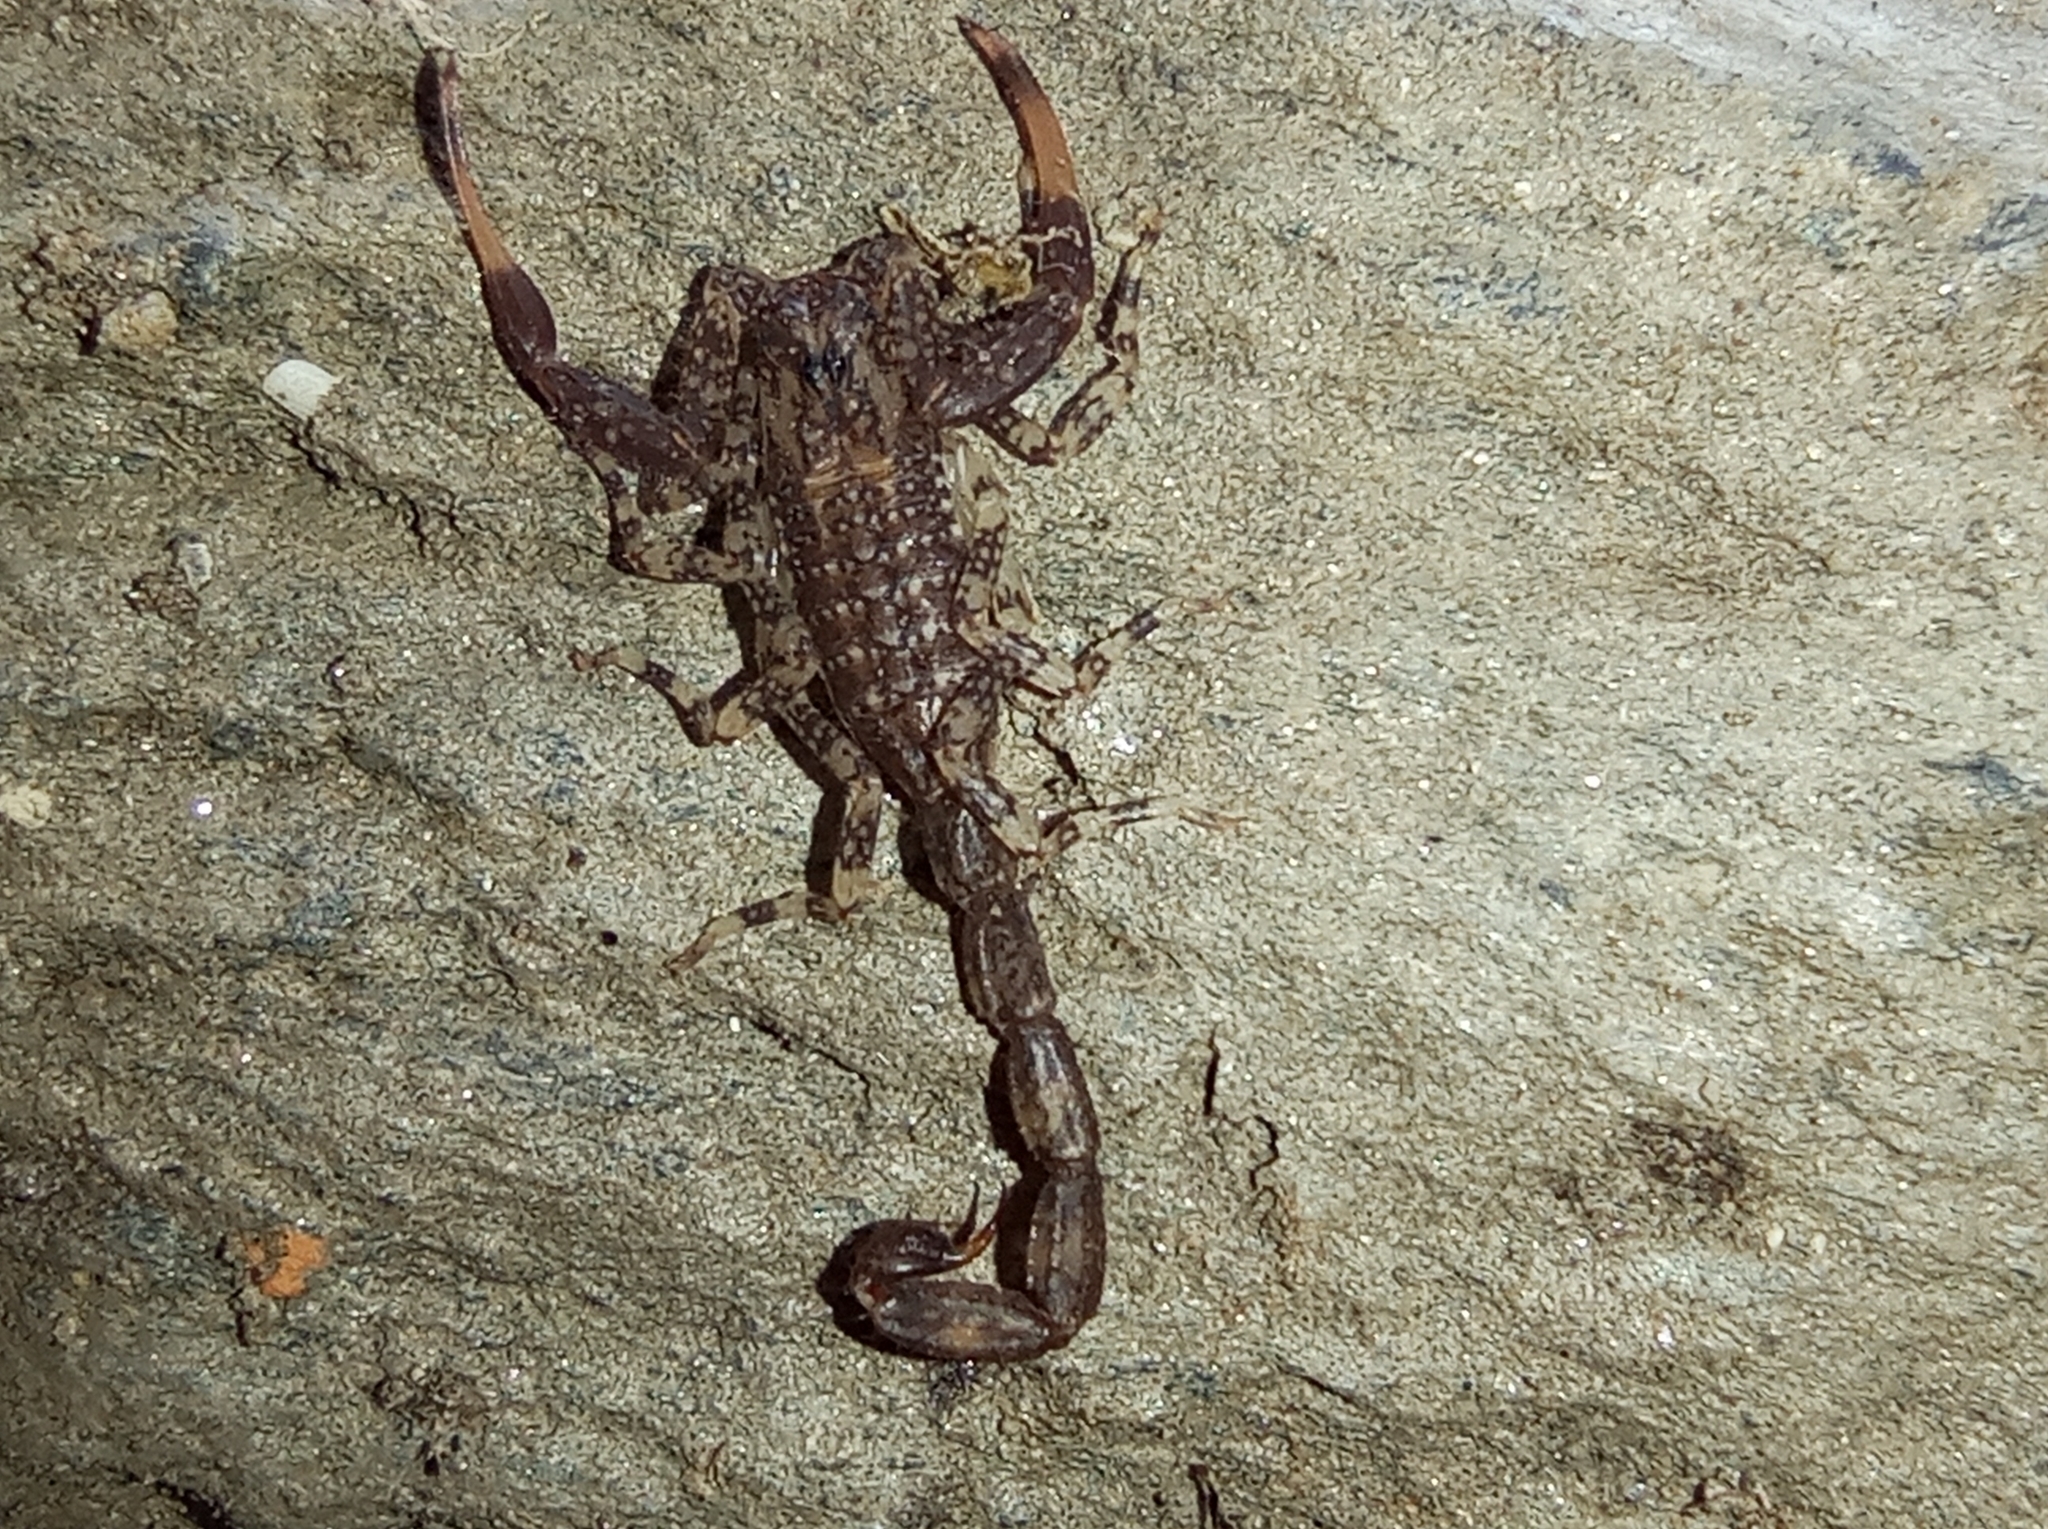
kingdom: Animalia
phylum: Arthropoda
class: Arachnida
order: Scorpiones
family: Buthidae
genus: Tityus
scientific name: Tityus boconoensis
